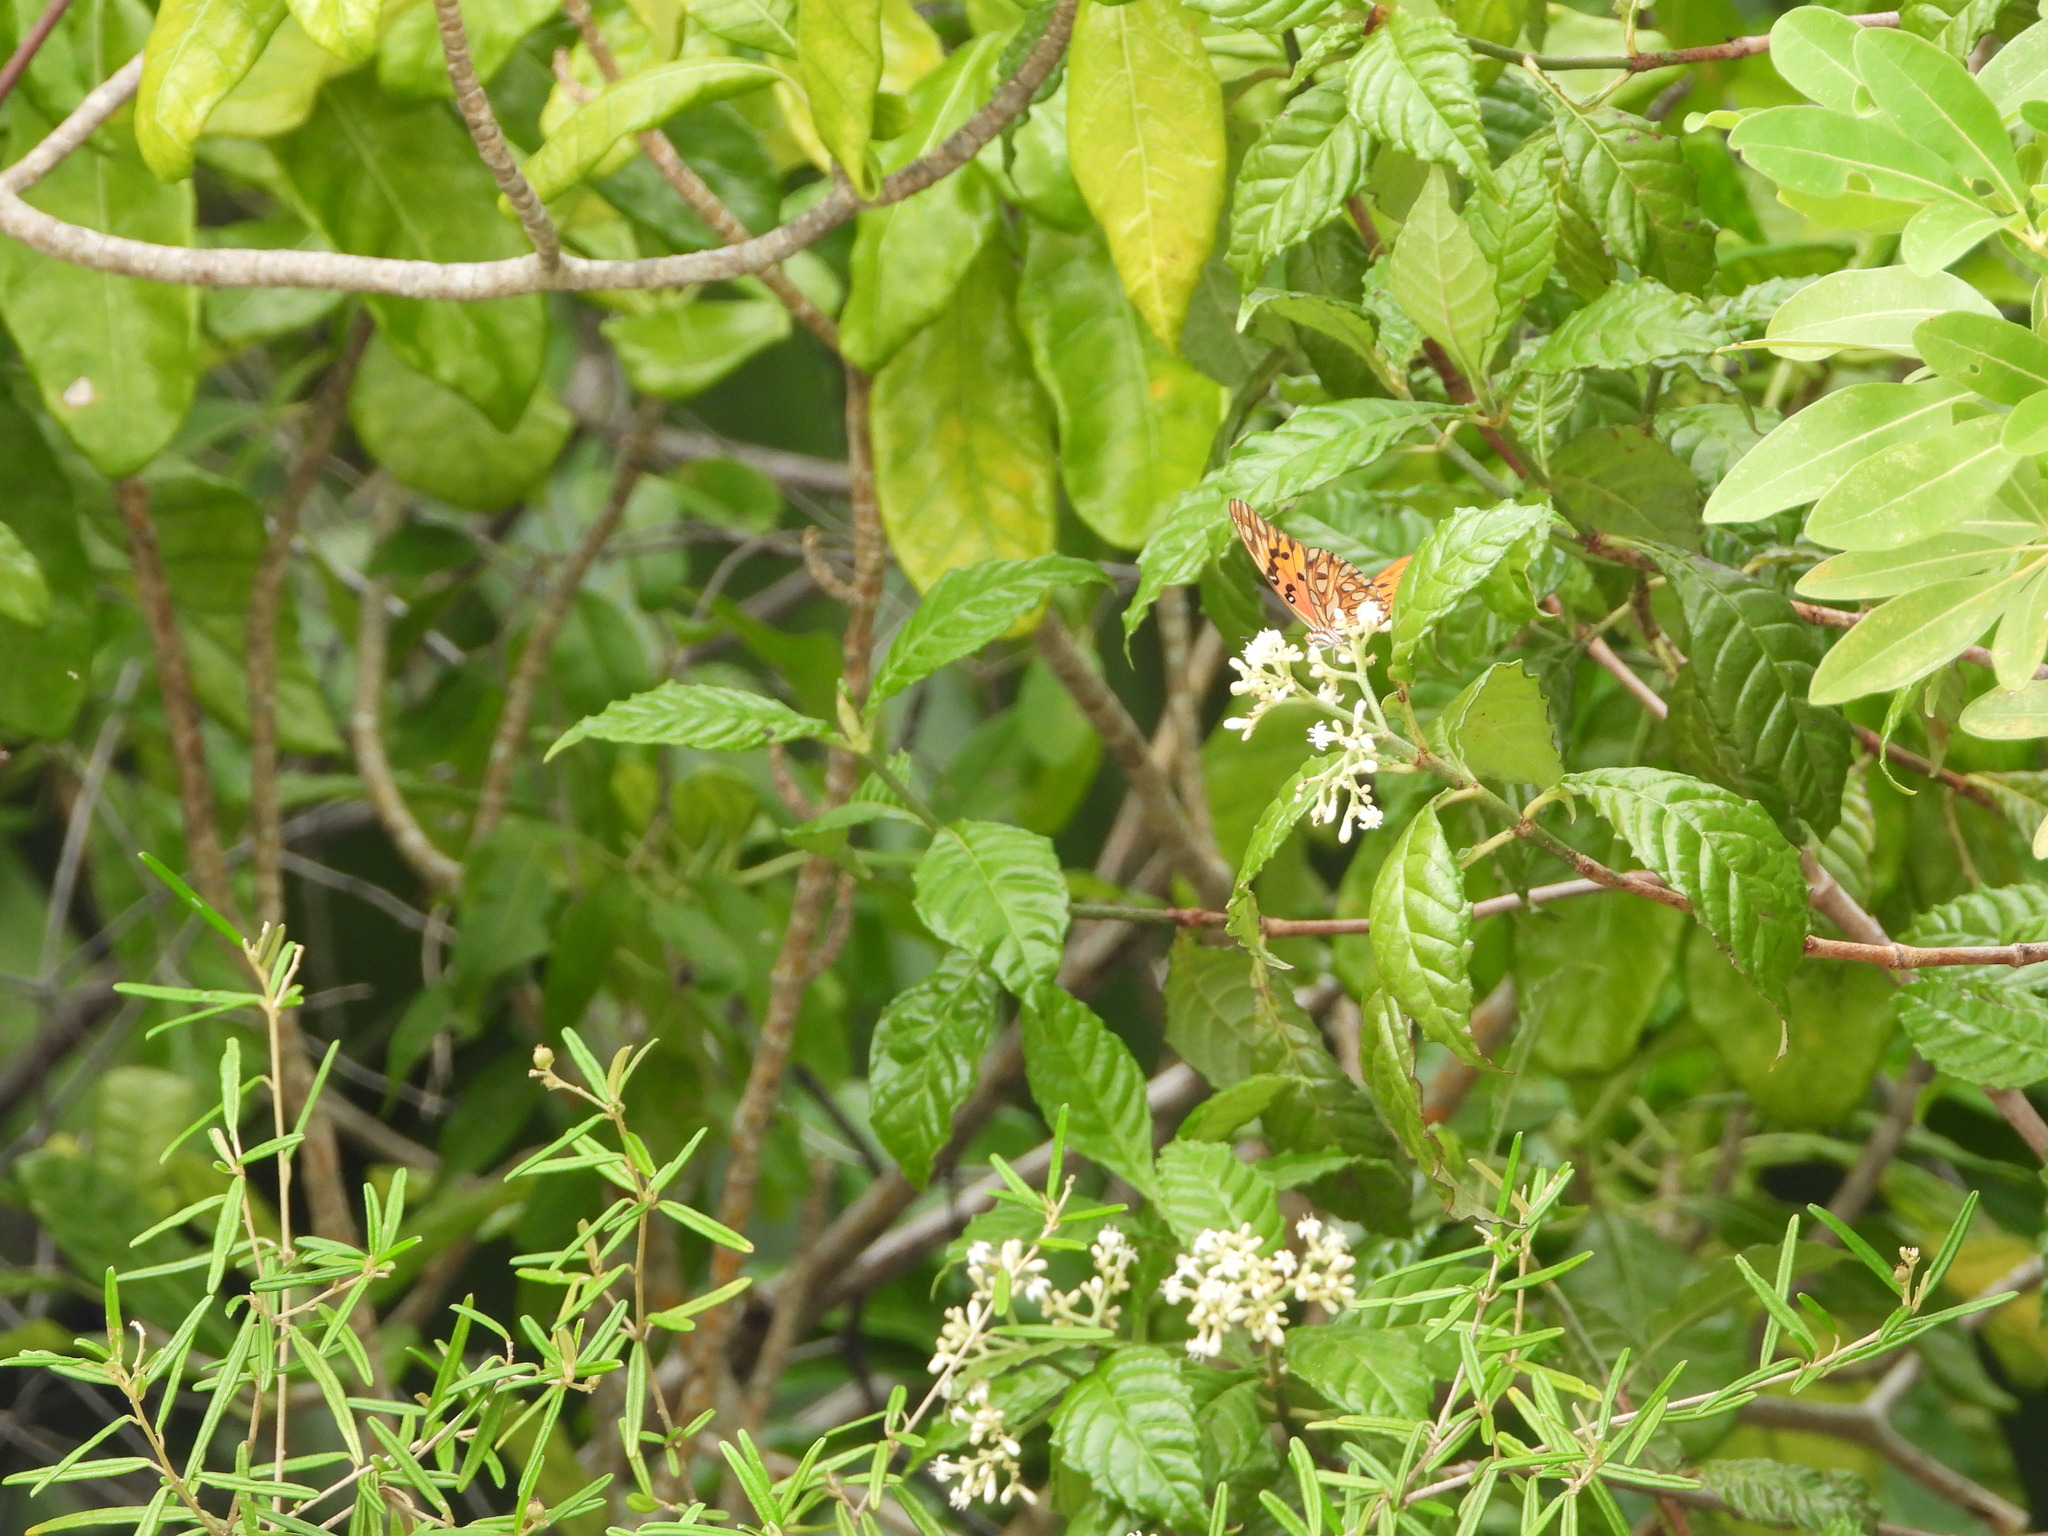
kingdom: Animalia
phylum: Arthropoda
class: Insecta
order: Lepidoptera
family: Nymphalidae
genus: Dione
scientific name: Dione vanillae
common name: Gulf fritillary
